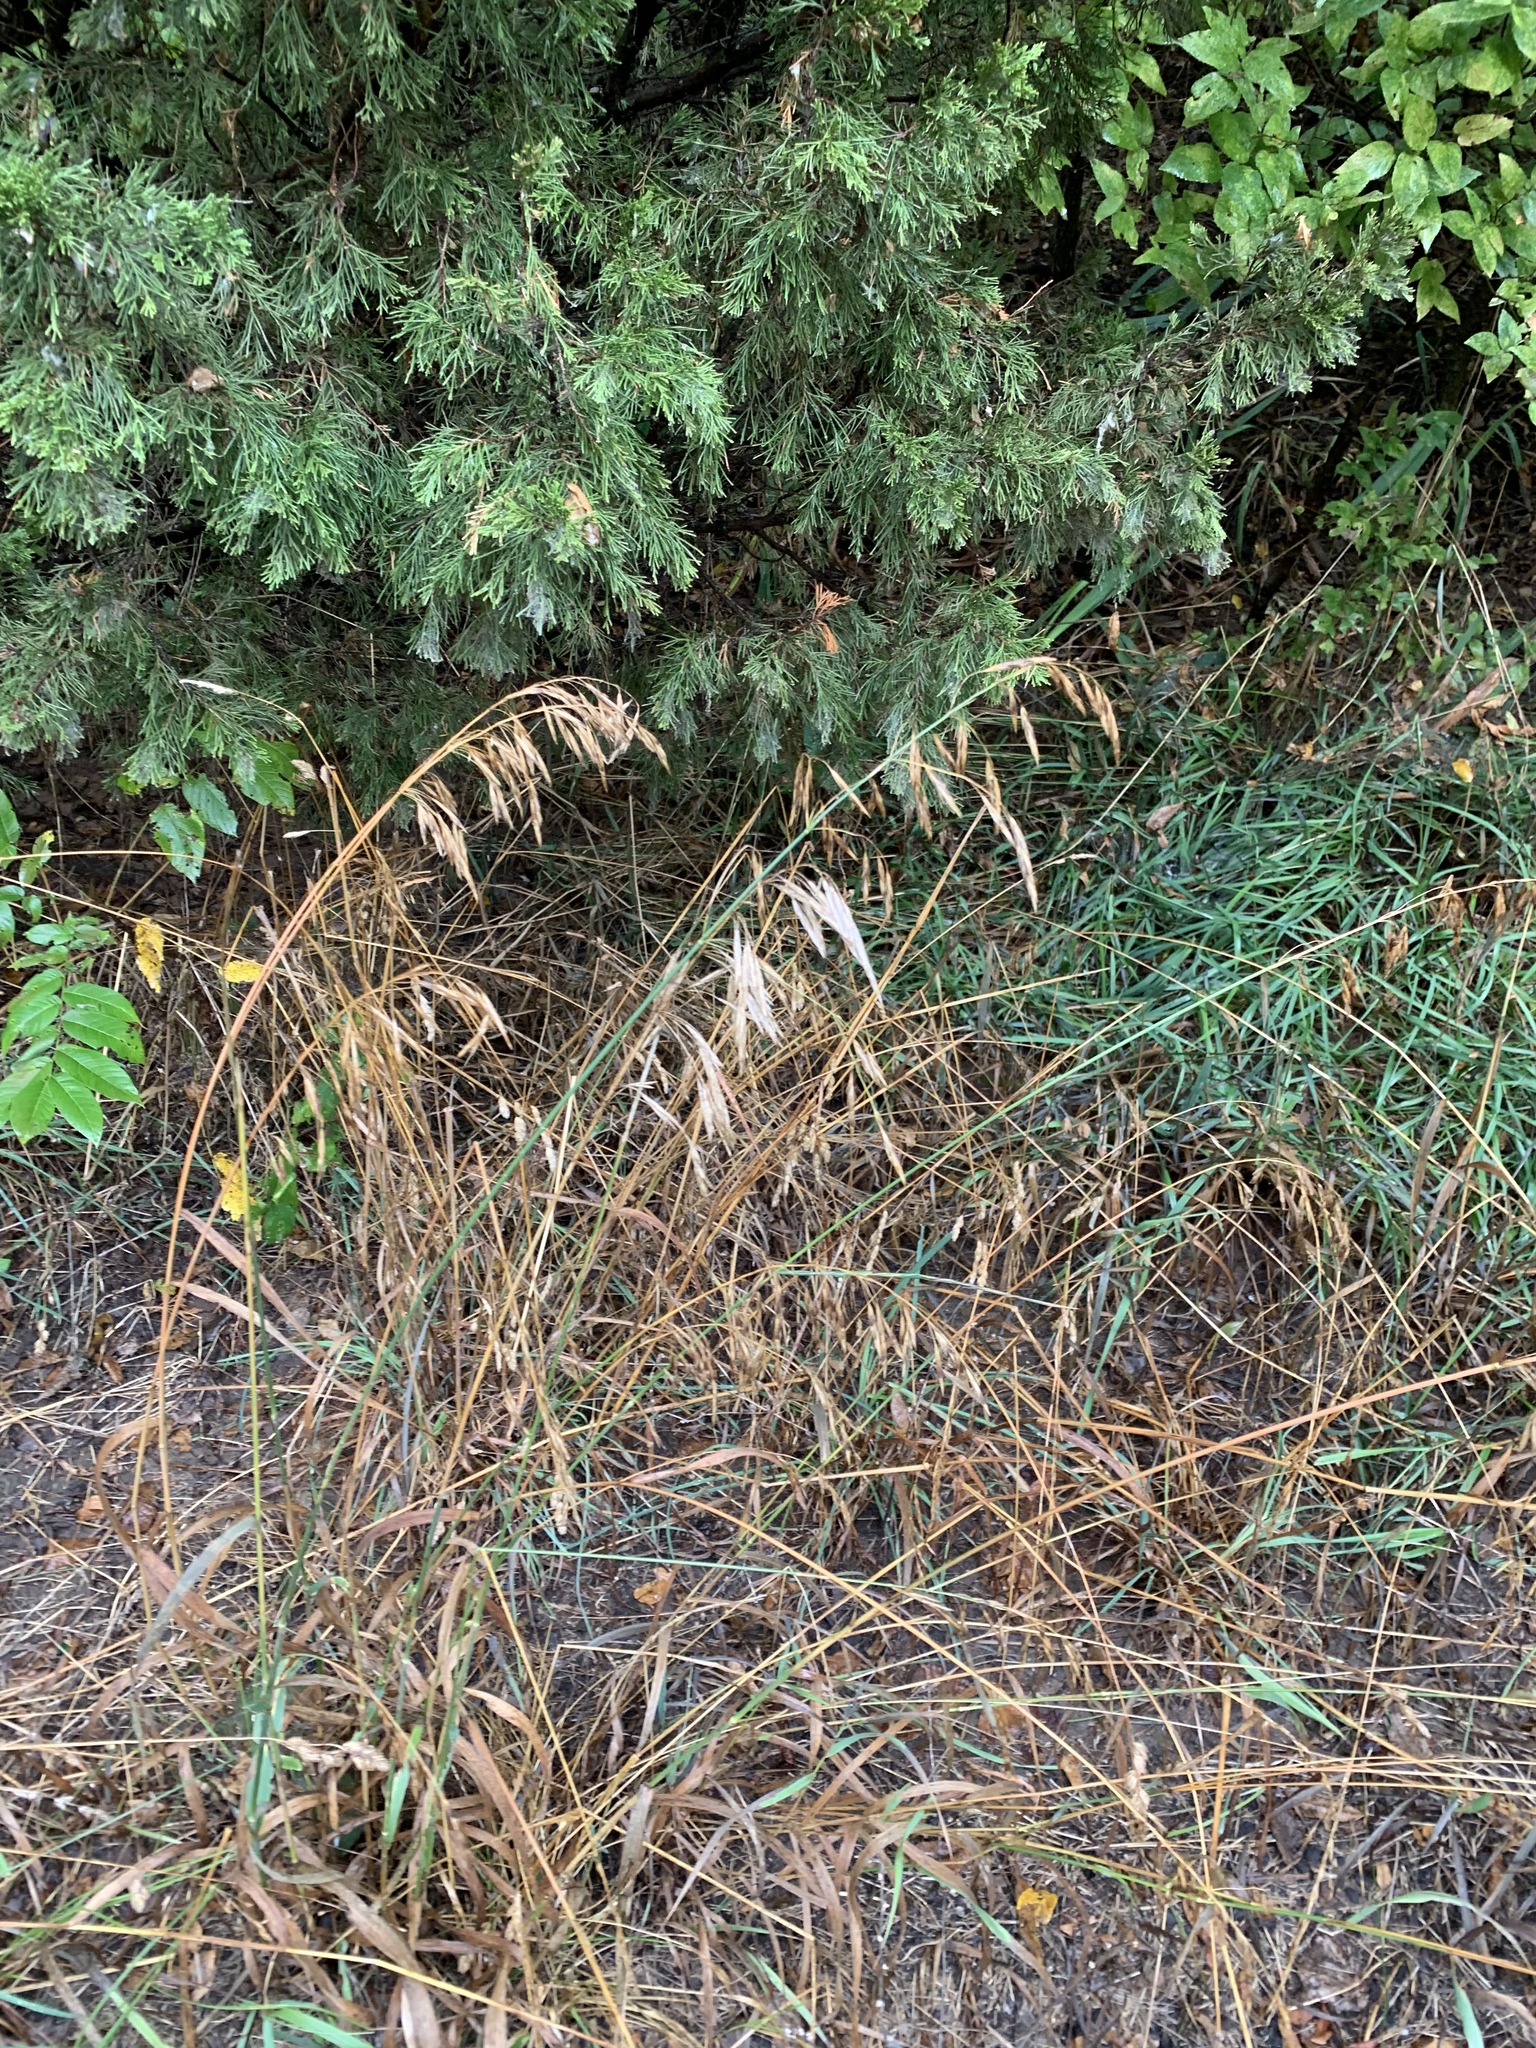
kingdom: Plantae
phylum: Tracheophyta
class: Liliopsida
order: Poales
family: Poaceae
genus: Bromus
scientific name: Bromus inermis
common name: Smooth brome
